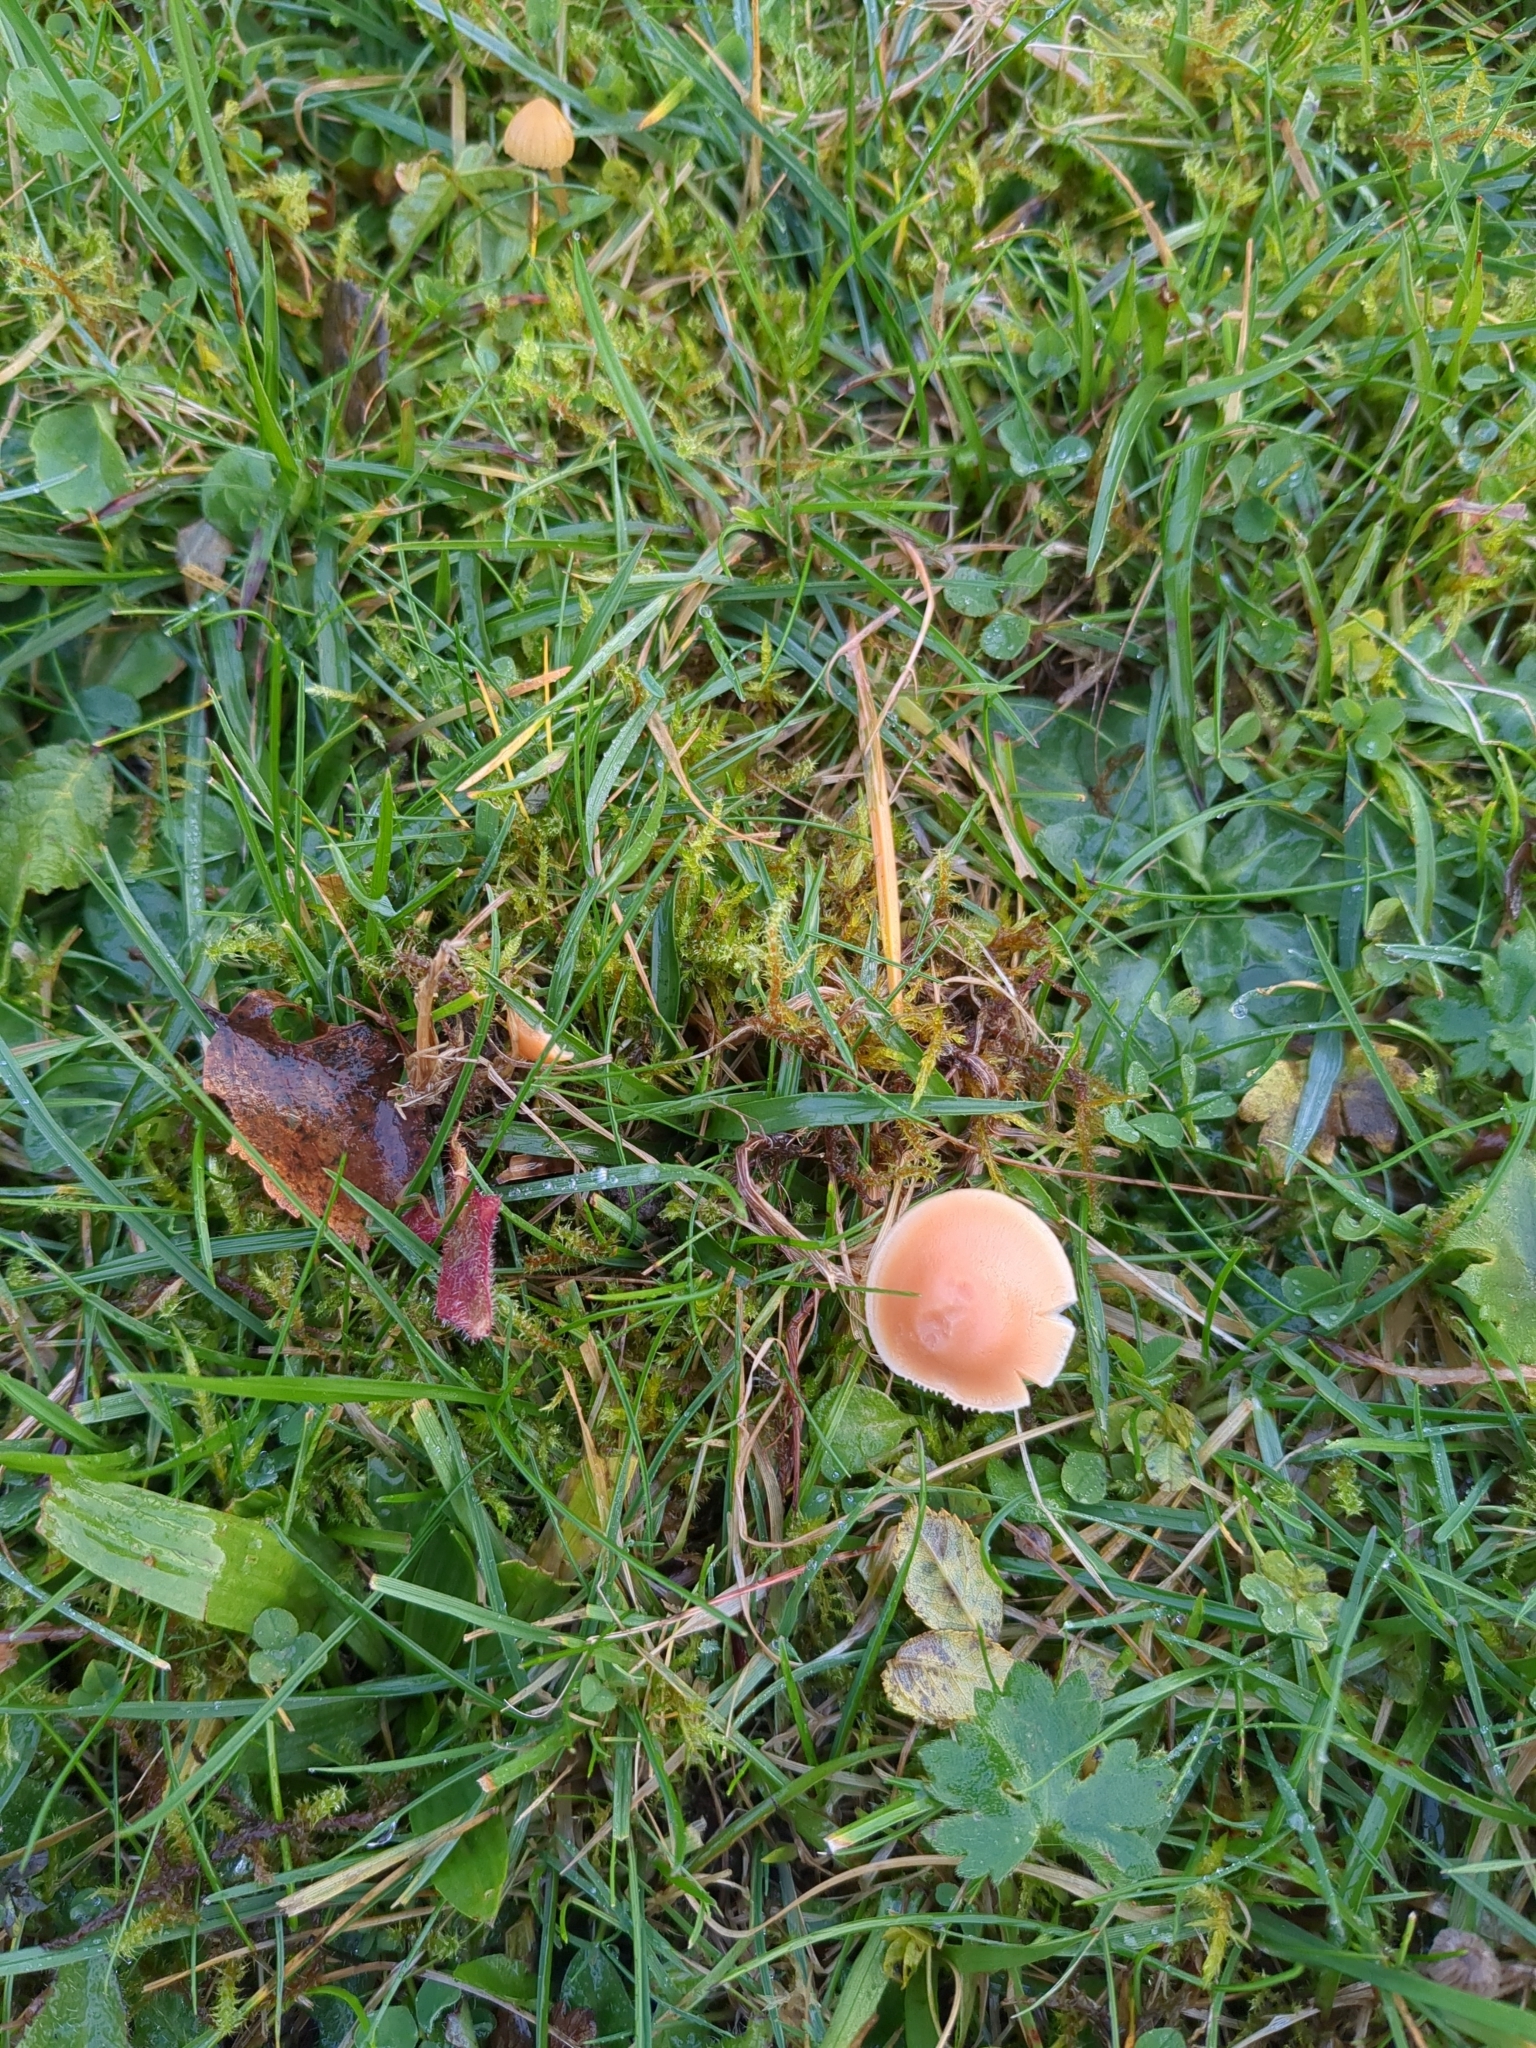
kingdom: Fungi
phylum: Basidiomycota
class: Agaricomycetes
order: Agaricales
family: Hygrophoraceae
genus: Cuphophyllus
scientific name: Cuphophyllus pratensis
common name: Meadow waxcap
